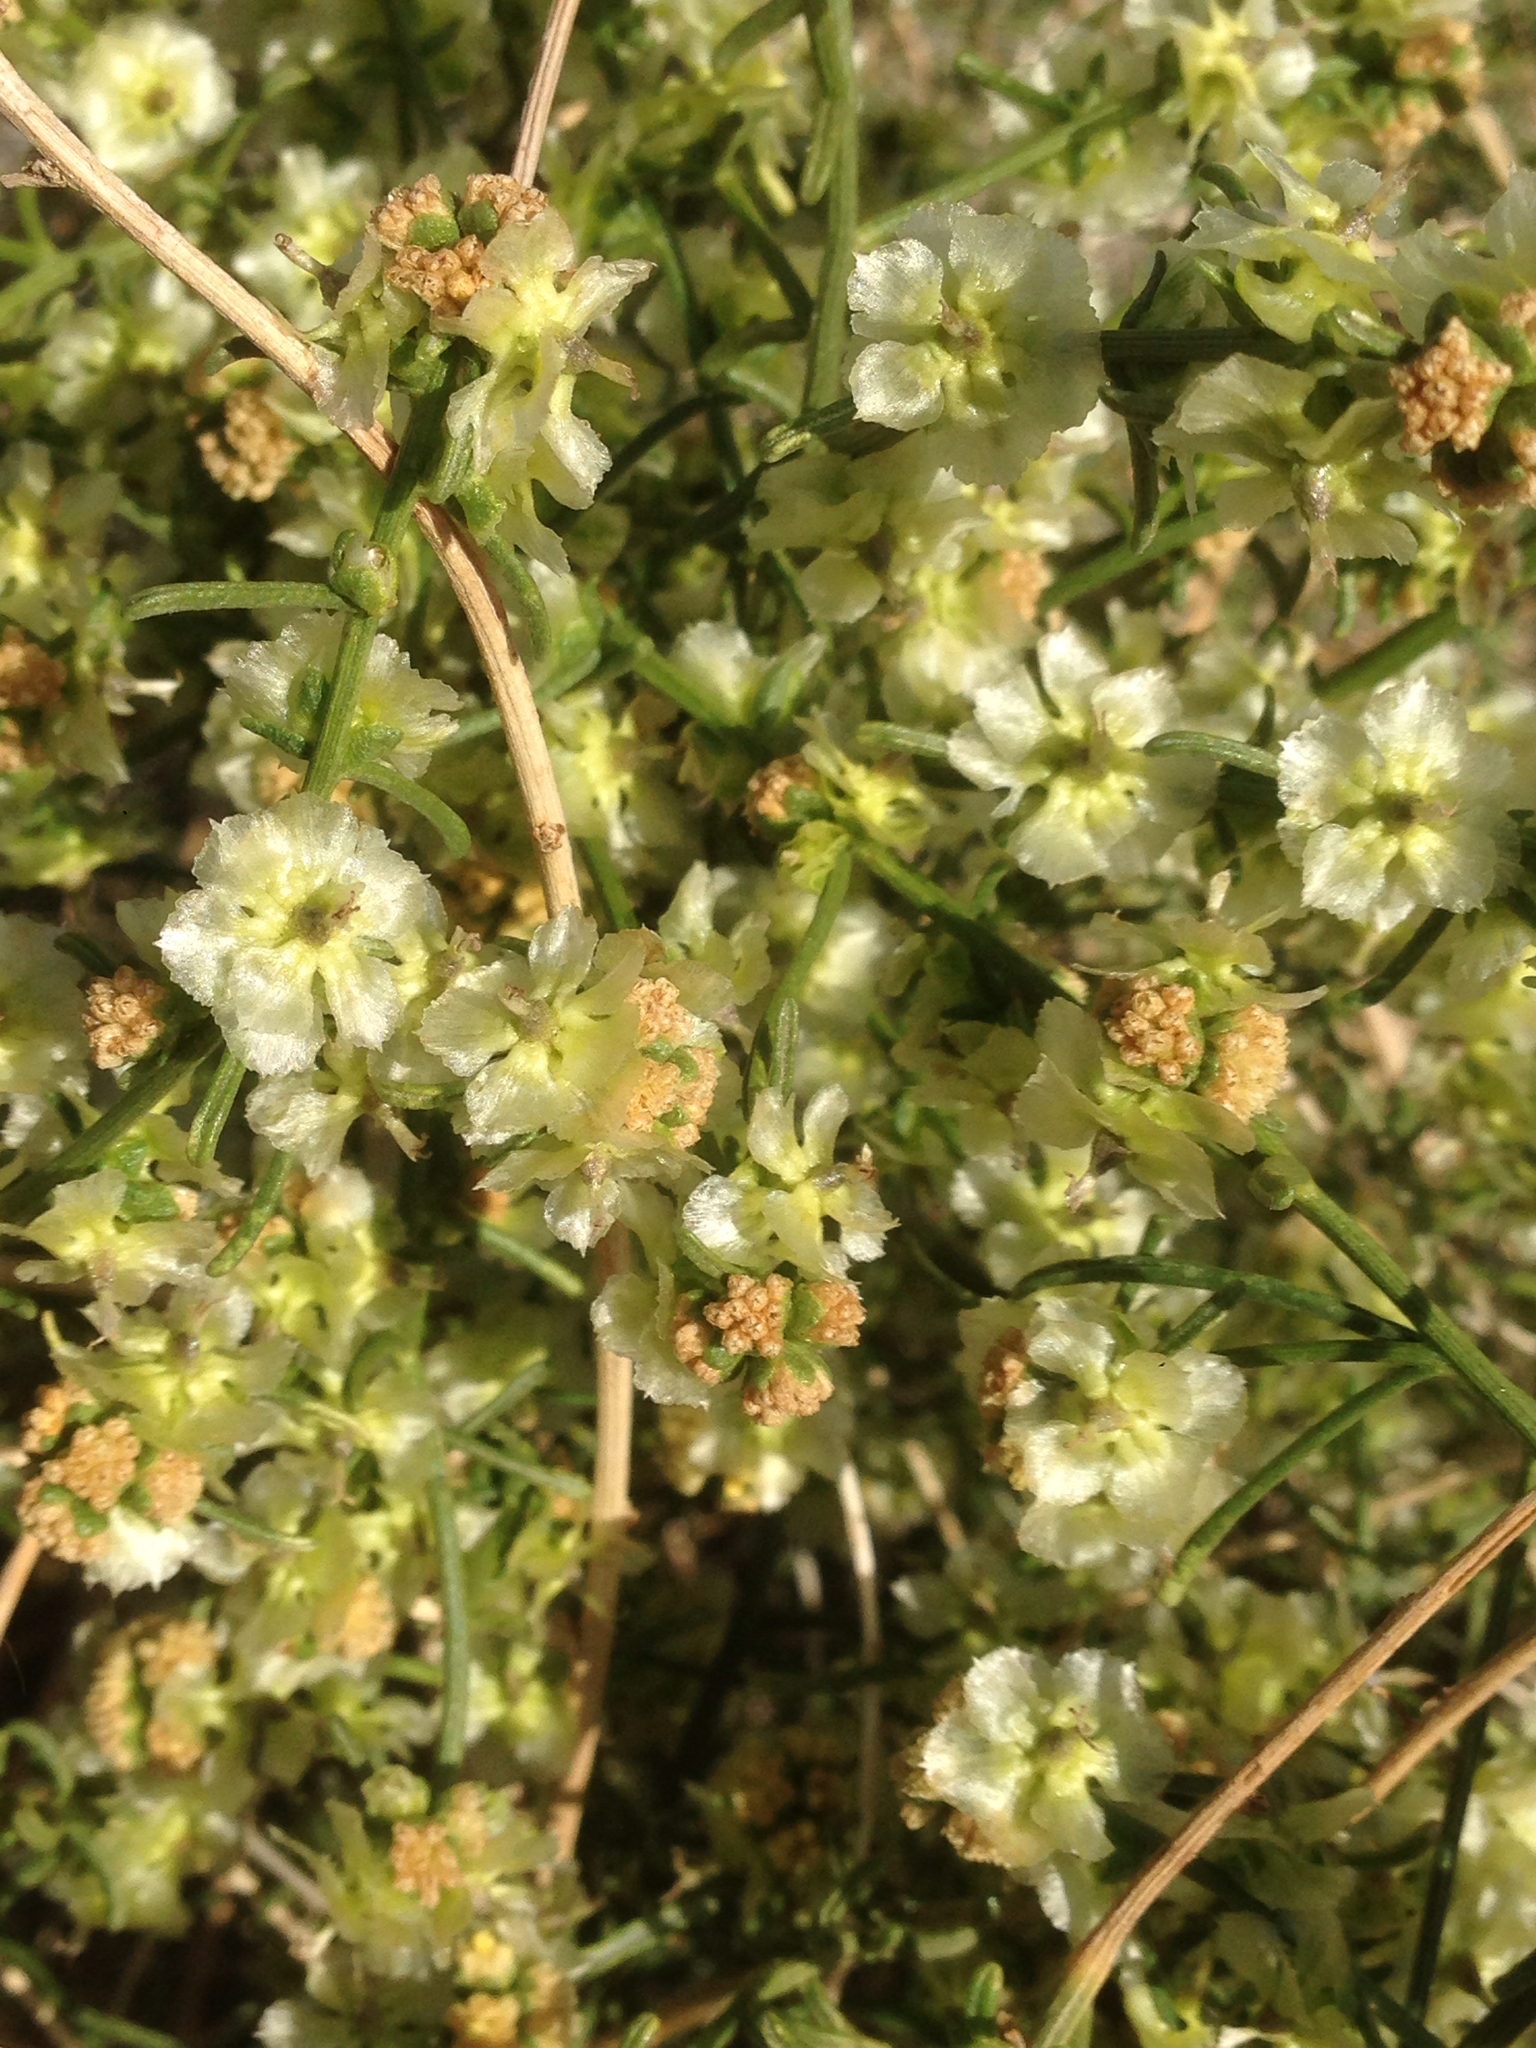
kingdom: Plantae
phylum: Tracheophyta
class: Magnoliopsida
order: Asterales
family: Asteraceae
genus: Ambrosia
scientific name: Ambrosia salsola
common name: Burrobrush
